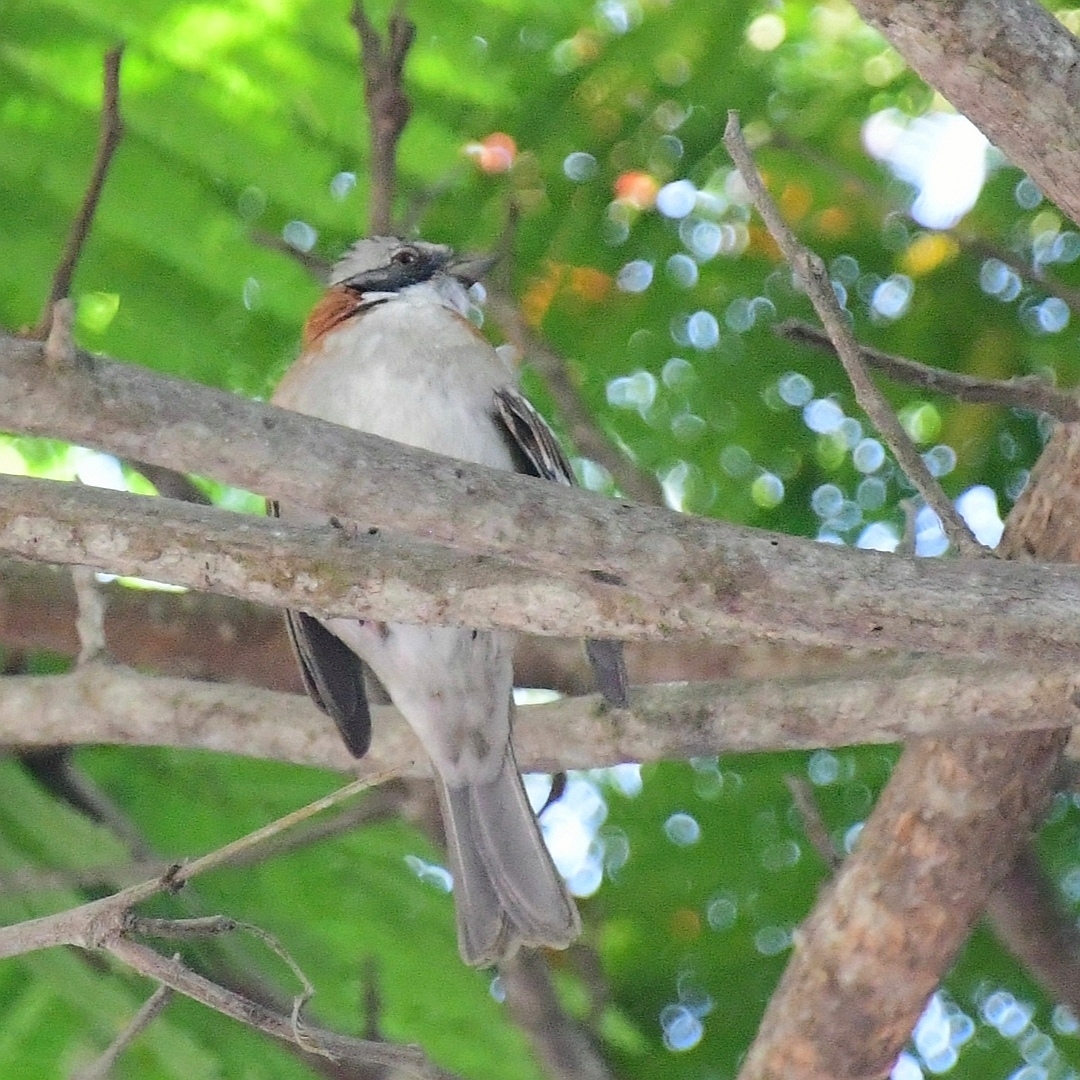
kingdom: Animalia
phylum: Chordata
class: Aves
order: Passeriformes
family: Passerellidae
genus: Zonotrichia
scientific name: Zonotrichia capensis
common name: Rufous-collared sparrow
